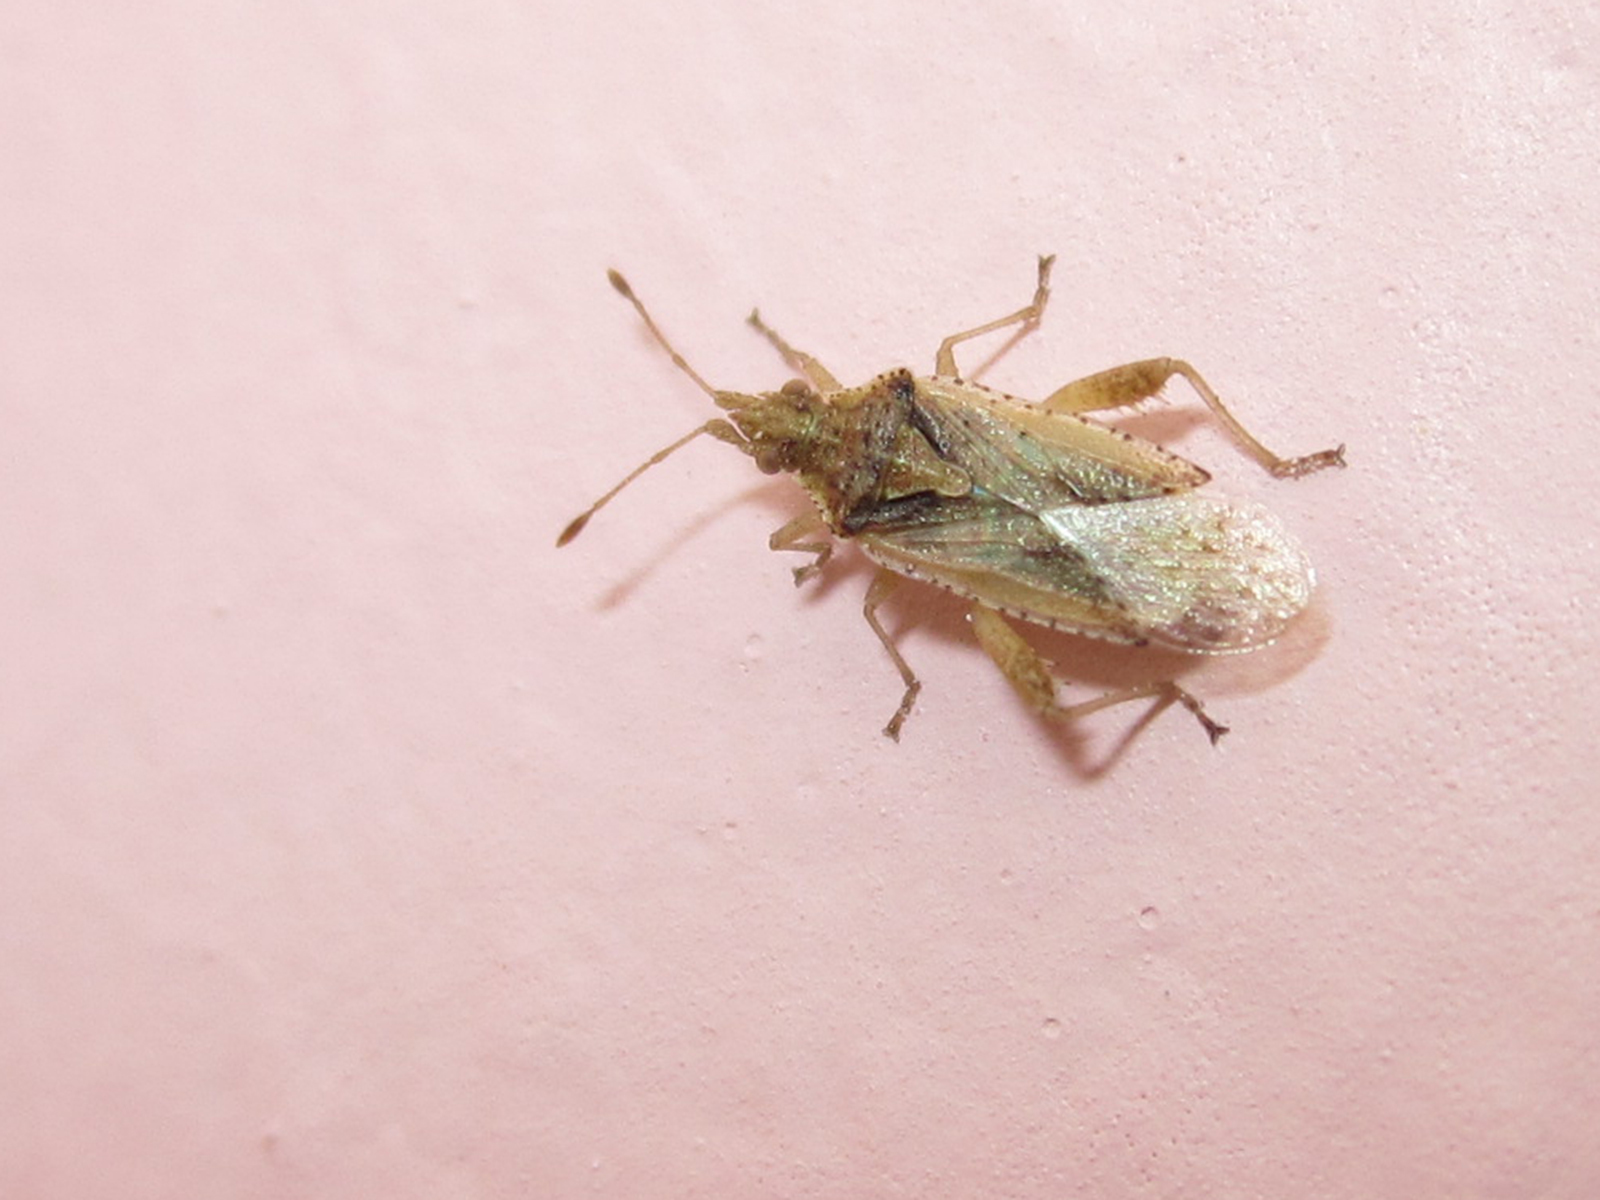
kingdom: Animalia
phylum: Arthropoda
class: Insecta
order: Hemiptera
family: Rhopalidae
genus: Harmostes
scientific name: Harmostes
